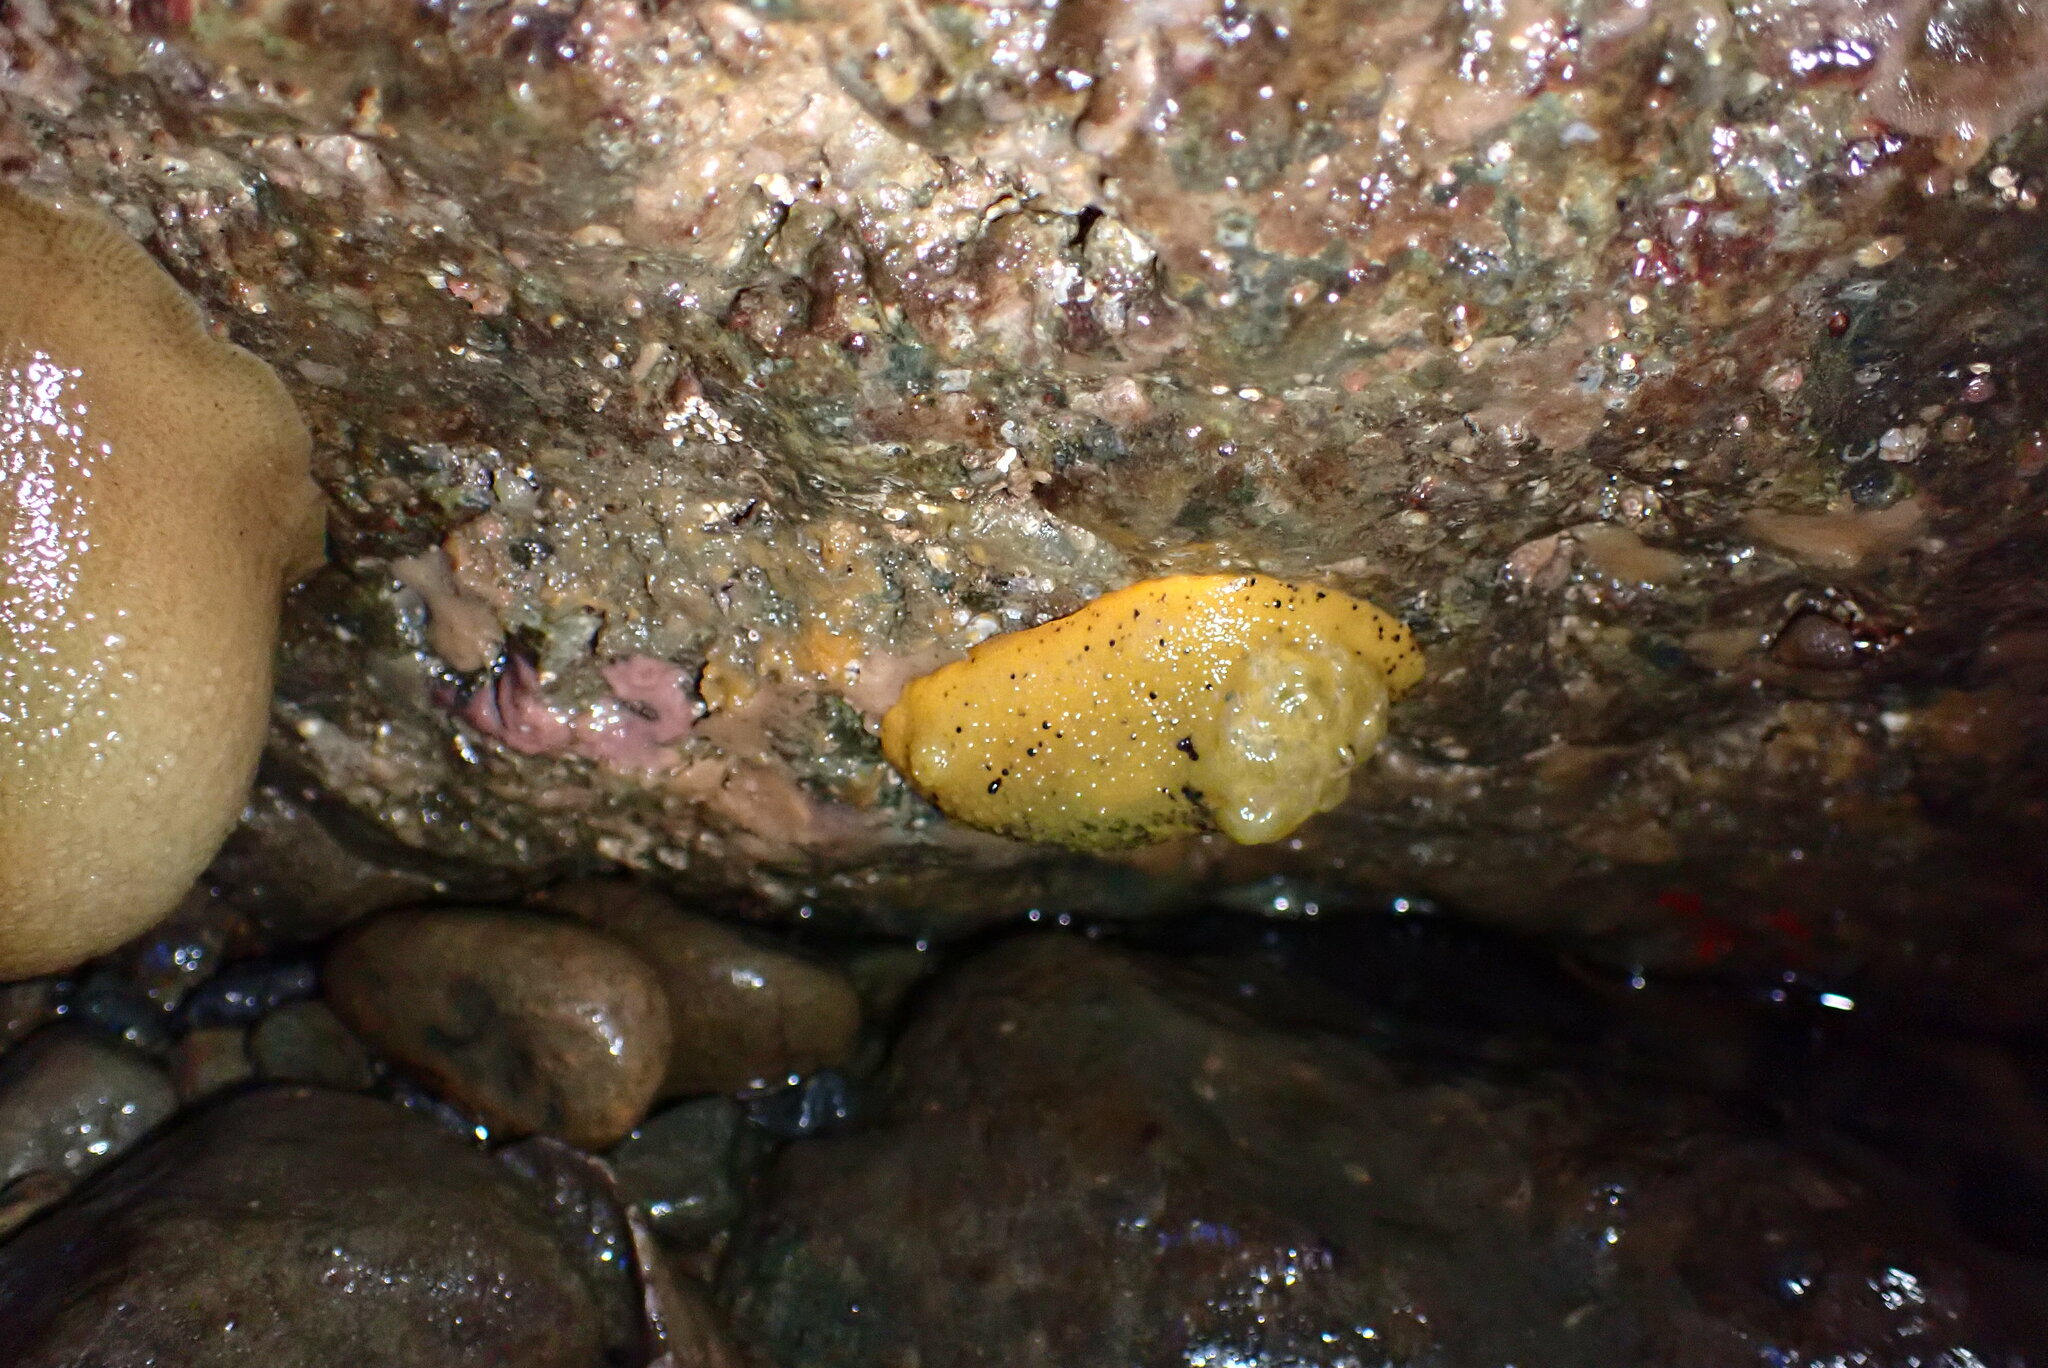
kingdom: Animalia
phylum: Mollusca
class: Gastropoda
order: Nudibranchia
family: Dorididae
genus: Doris
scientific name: Doris montereyensis
